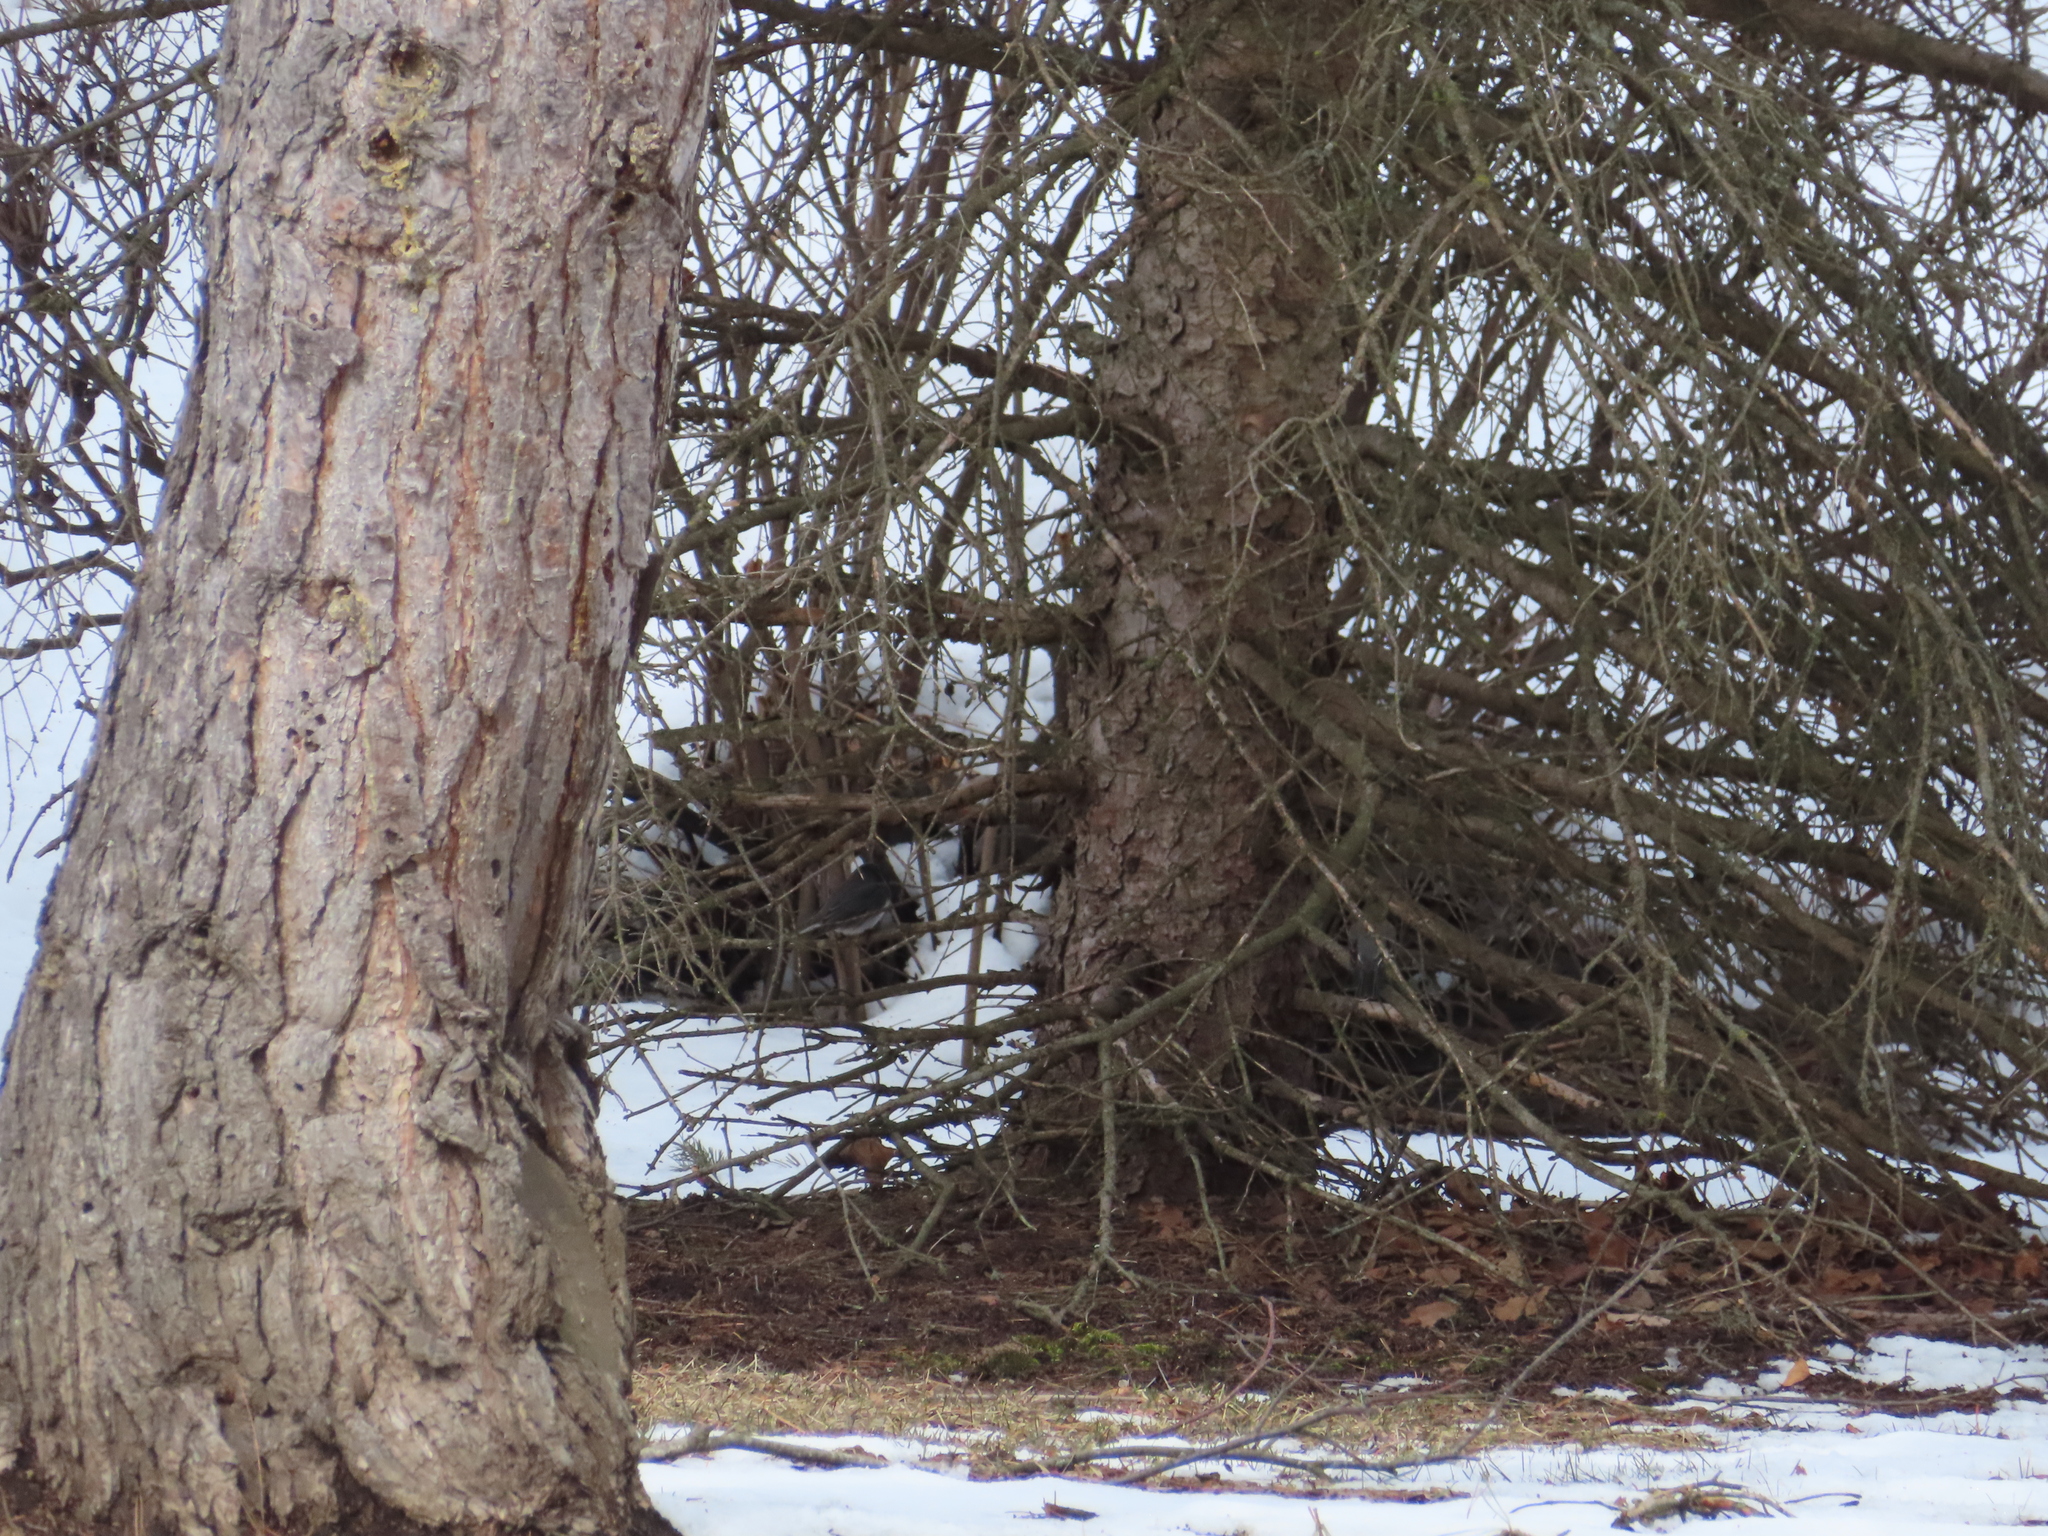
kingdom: Animalia
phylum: Chordata
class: Aves
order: Passeriformes
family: Passerellidae
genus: Junco
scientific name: Junco hyemalis
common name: Dark-eyed junco
